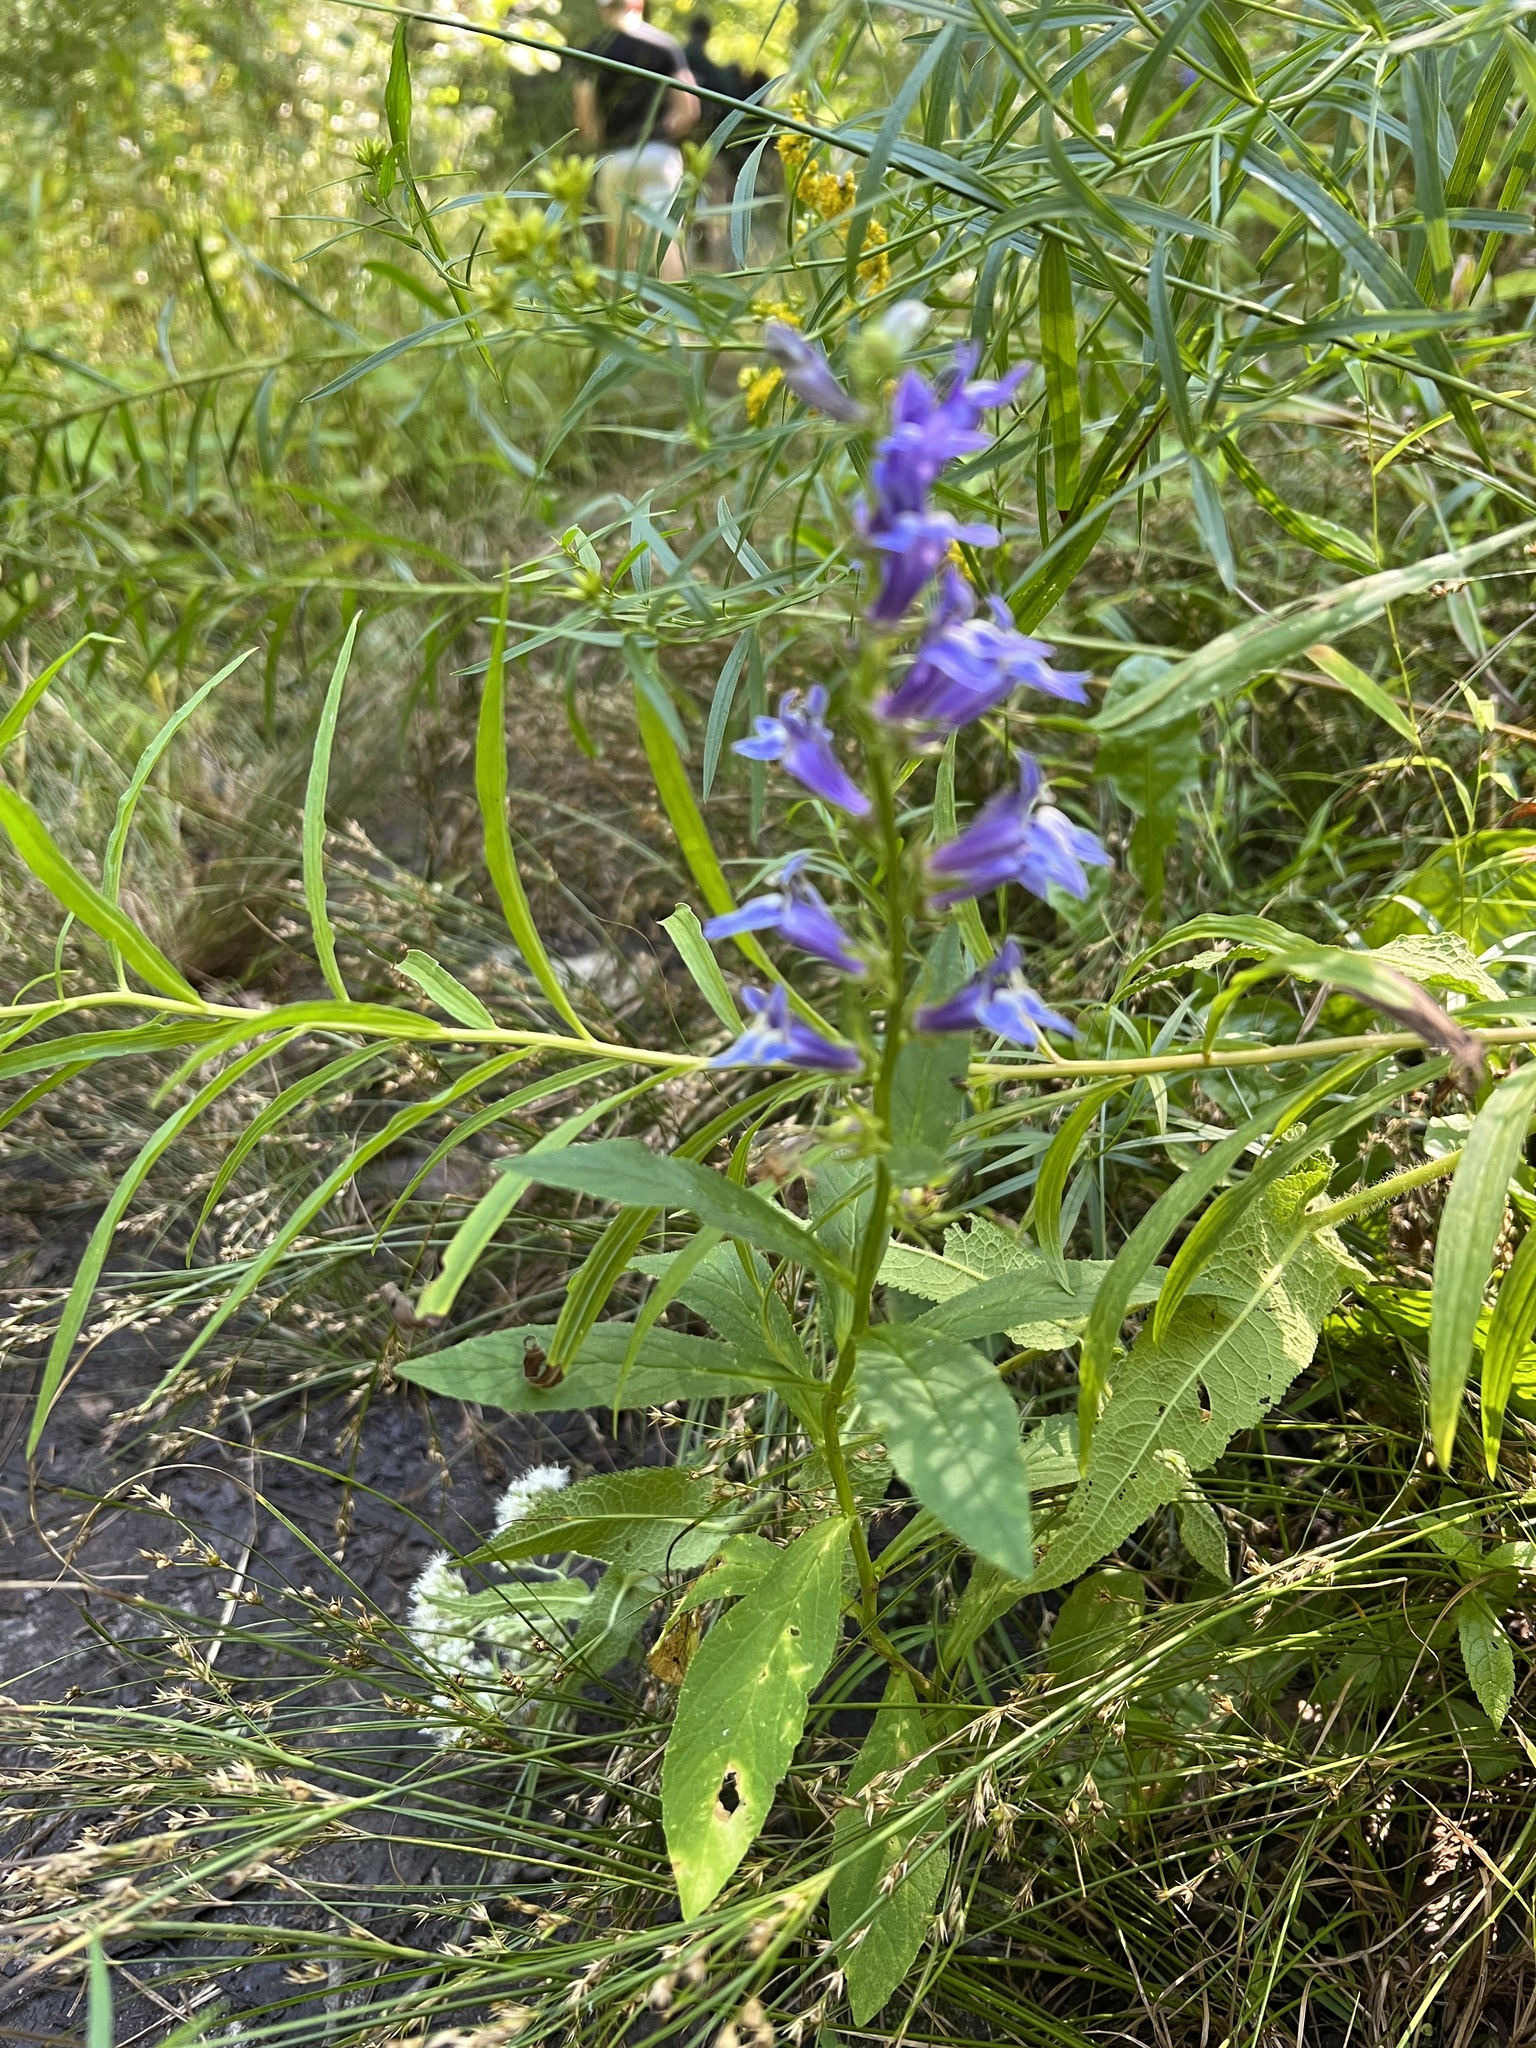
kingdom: Plantae
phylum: Tracheophyta
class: Magnoliopsida
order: Asterales
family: Campanulaceae
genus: Lobelia
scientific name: Lobelia siphilitica
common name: Great lobelia
